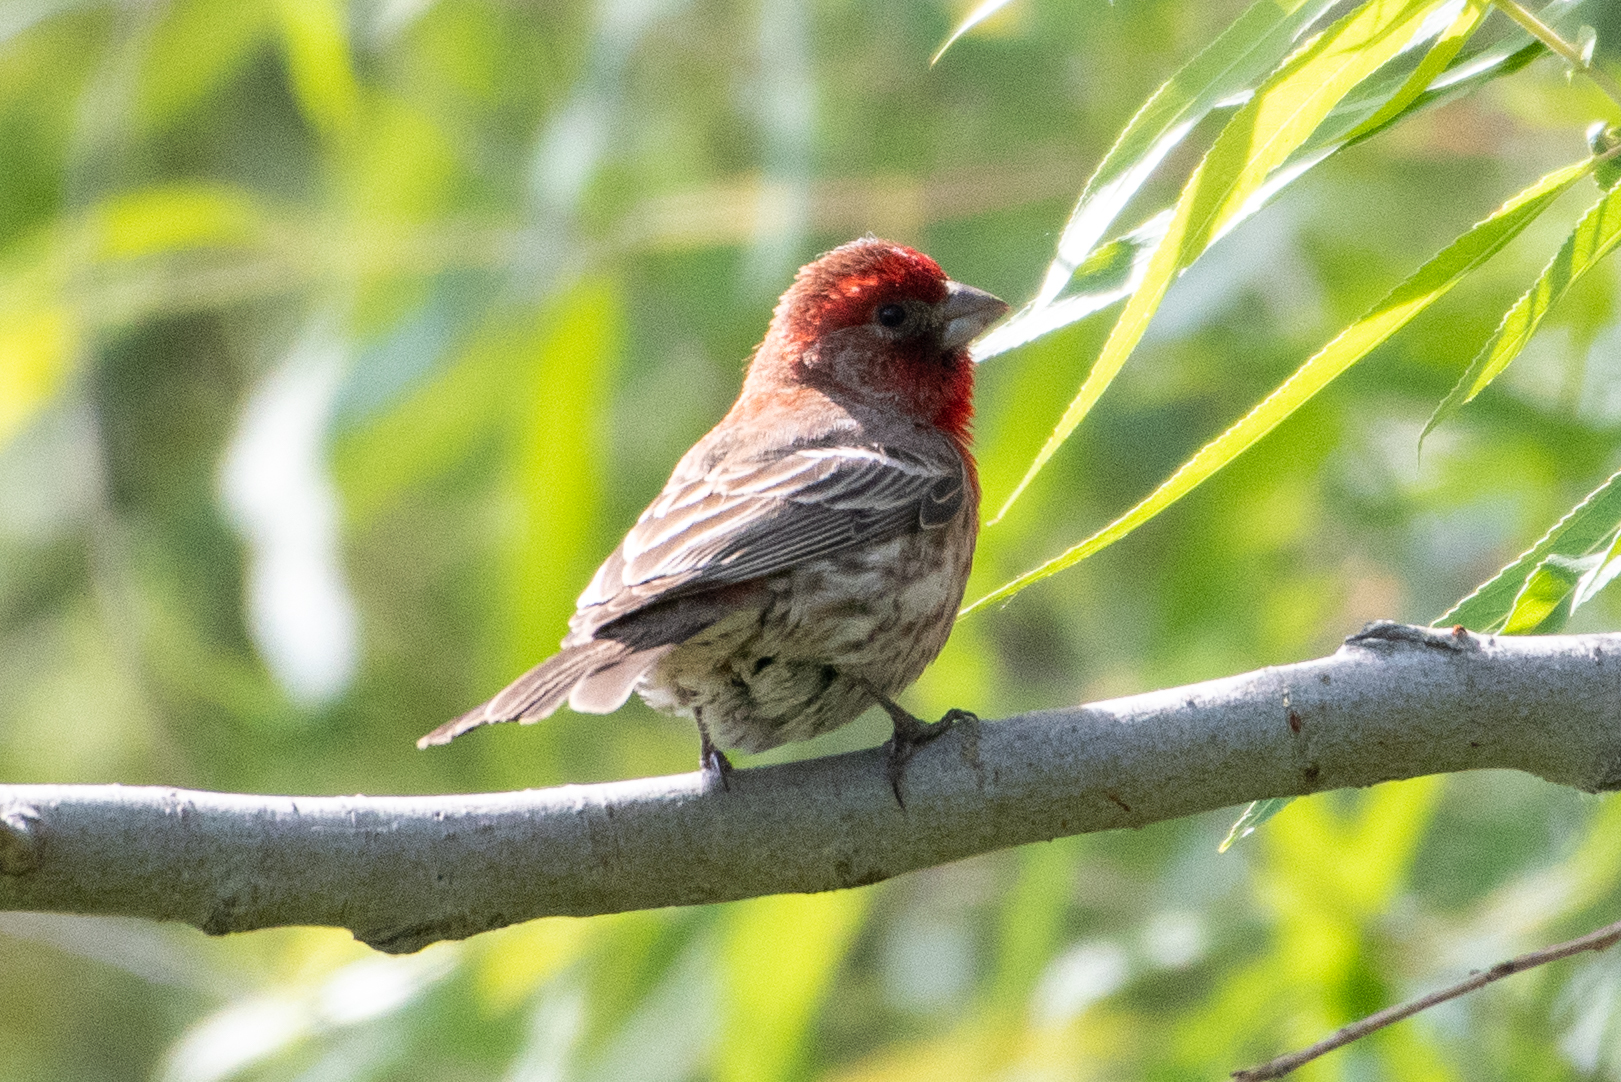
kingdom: Animalia
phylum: Chordata
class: Aves
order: Passeriformes
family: Fringillidae
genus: Haemorhous
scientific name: Haemorhous mexicanus
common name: House finch
